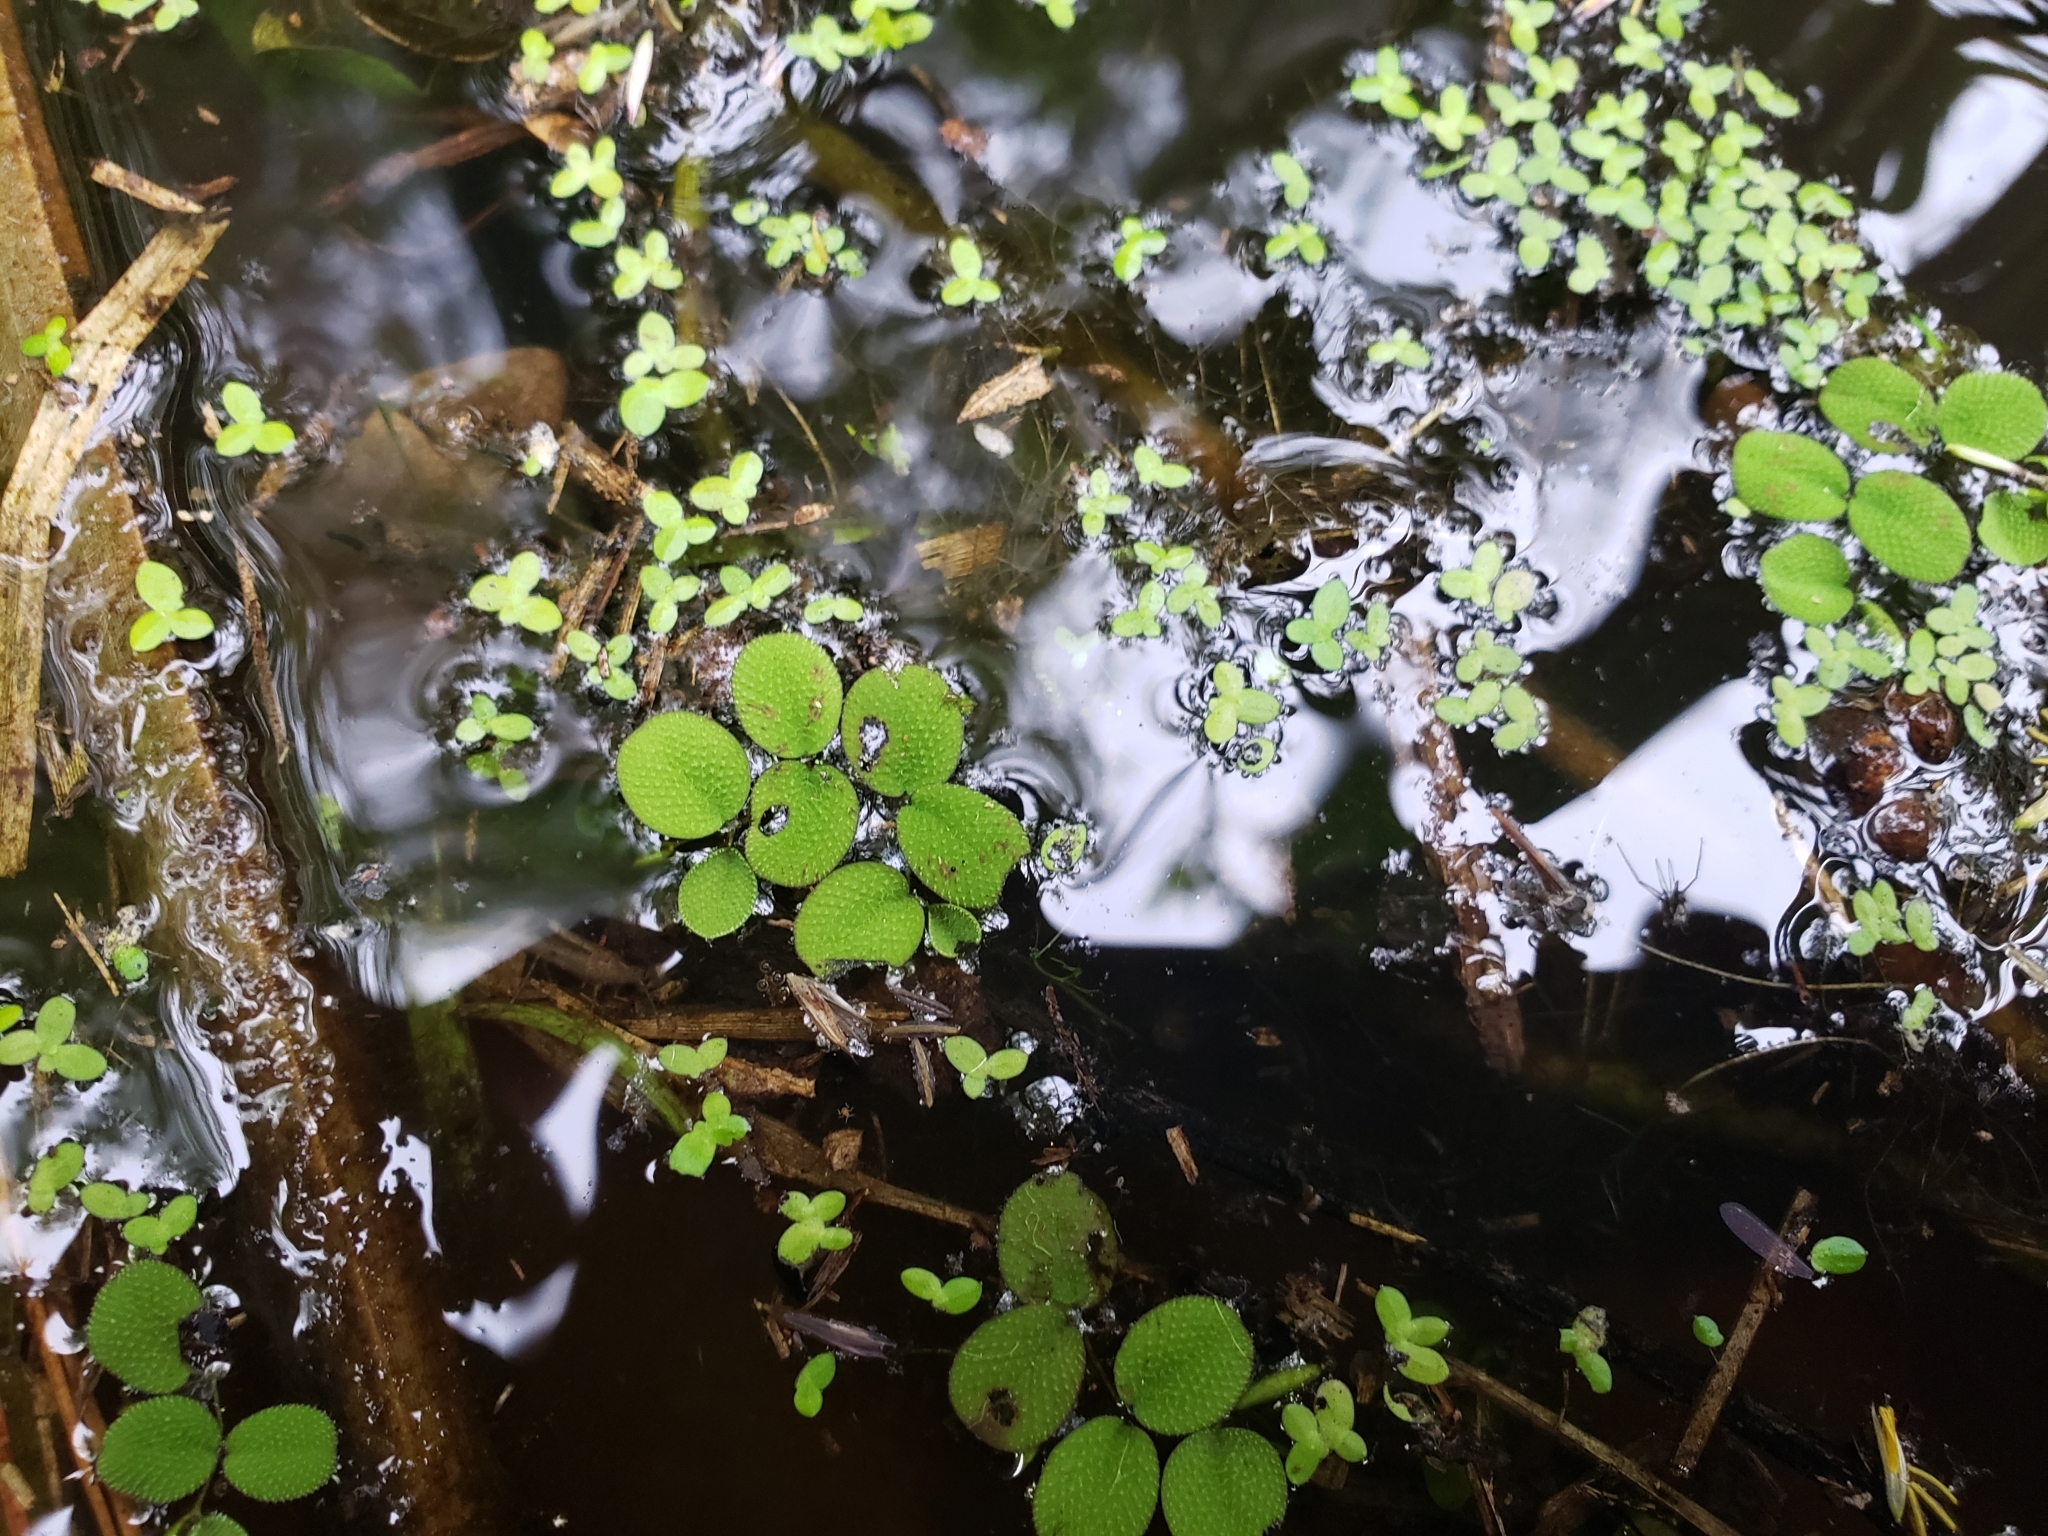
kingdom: Plantae
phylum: Tracheophyta
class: Polypodiopsida
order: Salviniales
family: Salviniaceae
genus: Salvinia
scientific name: Salvinia minima
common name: Water spangles
